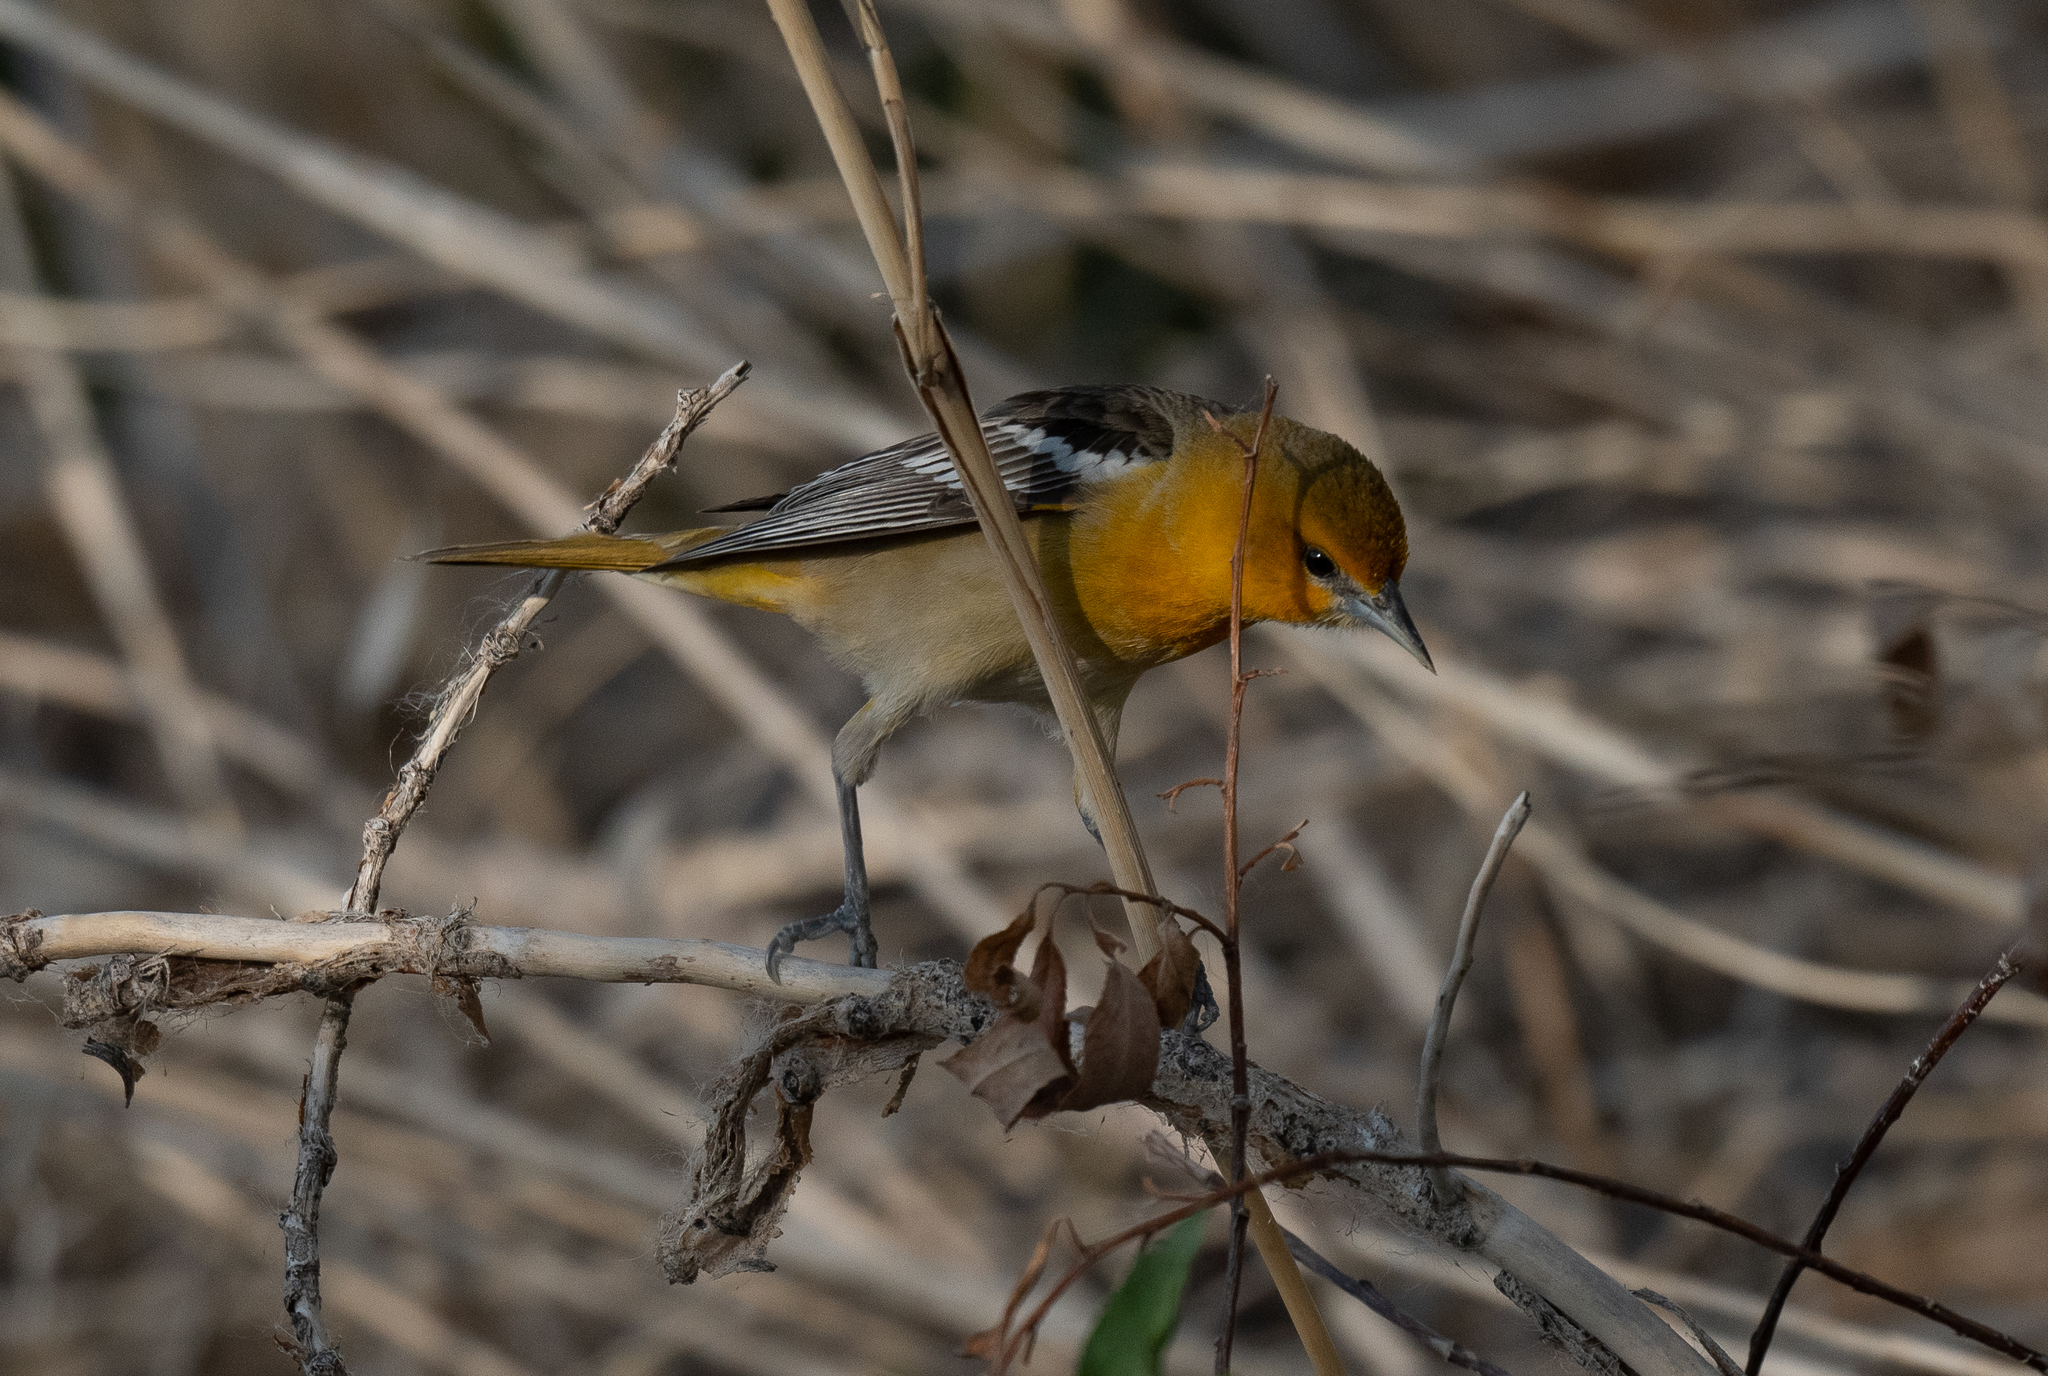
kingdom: Animalia
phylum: Chordata
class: Aves
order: Passeriformes
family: Icteridae
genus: Icterus
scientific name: Icterus bullockii
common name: Bullock's oriole
